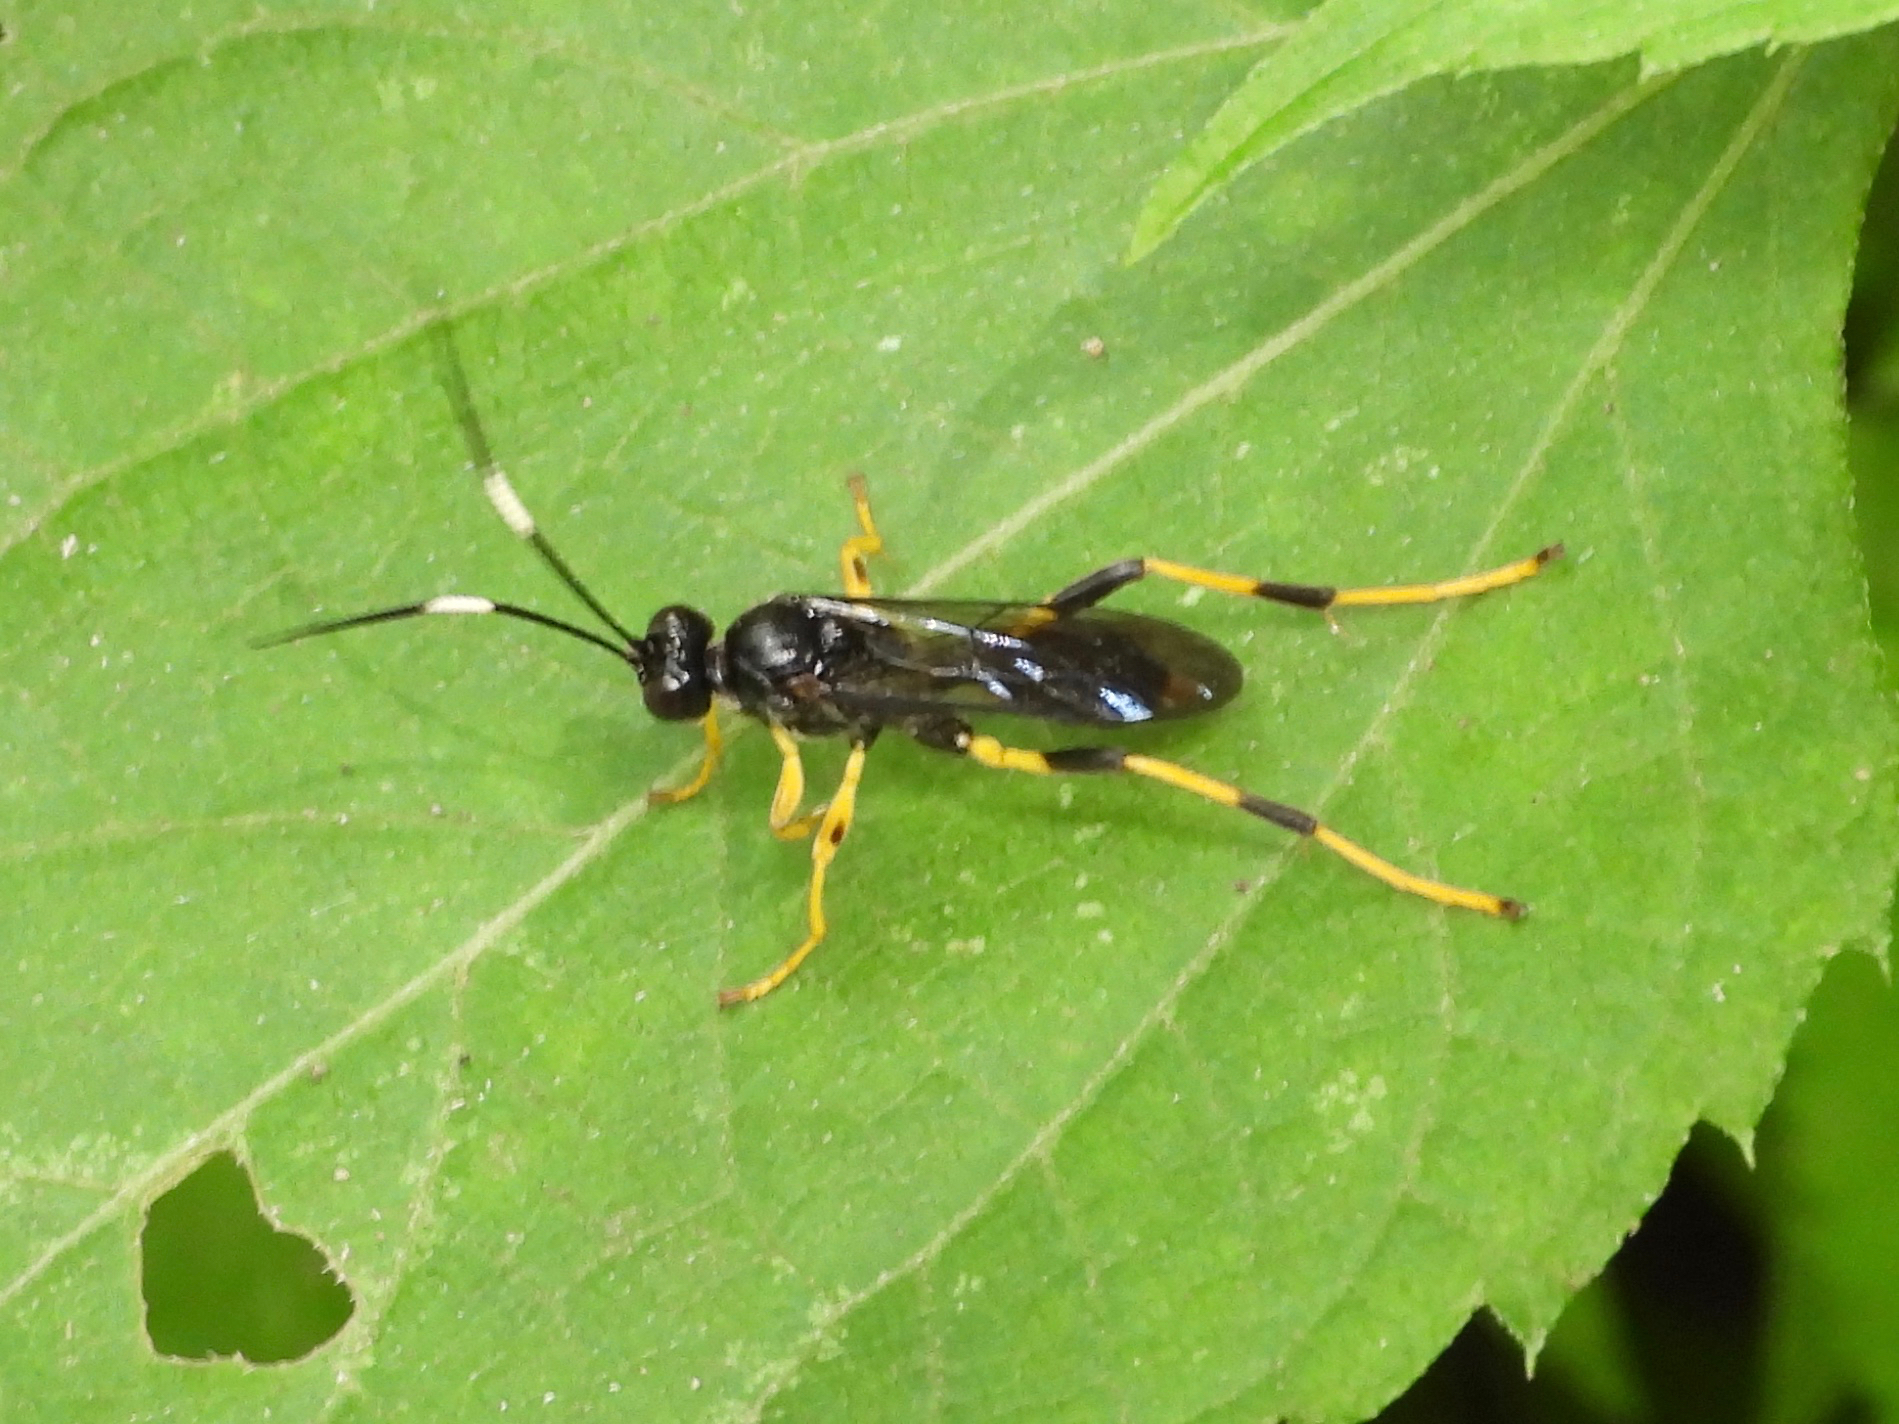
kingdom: Animalia
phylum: Arthropoda
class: Insecta
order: Hymenoptera
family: Ichneumonidae
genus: Conopyge
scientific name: Conopyge conica
